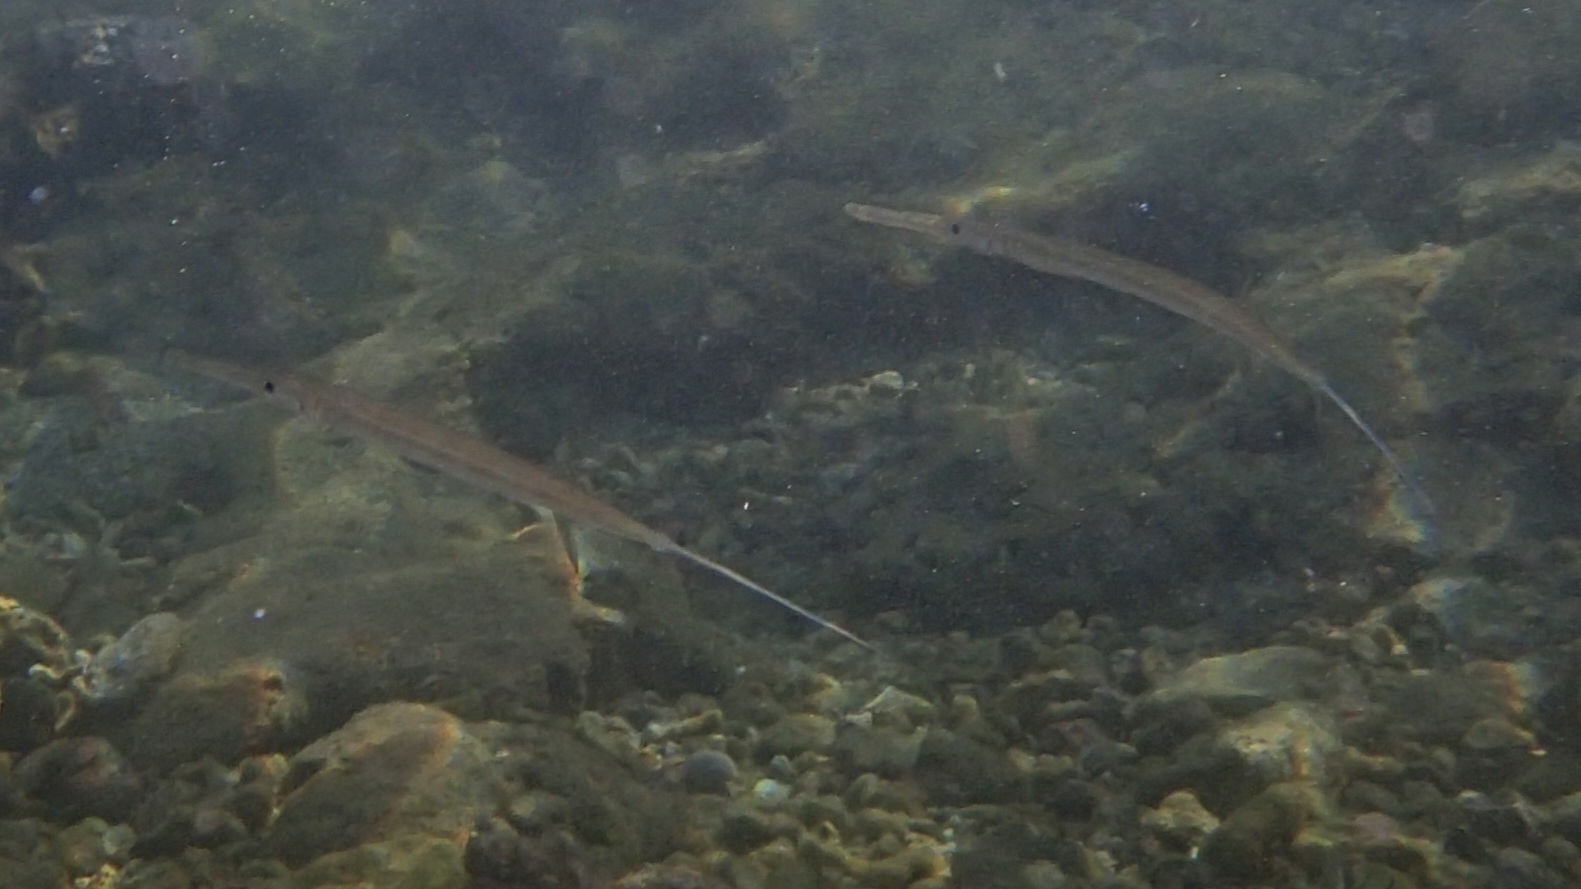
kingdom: Animalia
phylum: Chordata
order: Syngnathiformes
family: Fistulariidae
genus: Fistularia
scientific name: Fistularia commersonii
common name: Bluespotted cornetfish
